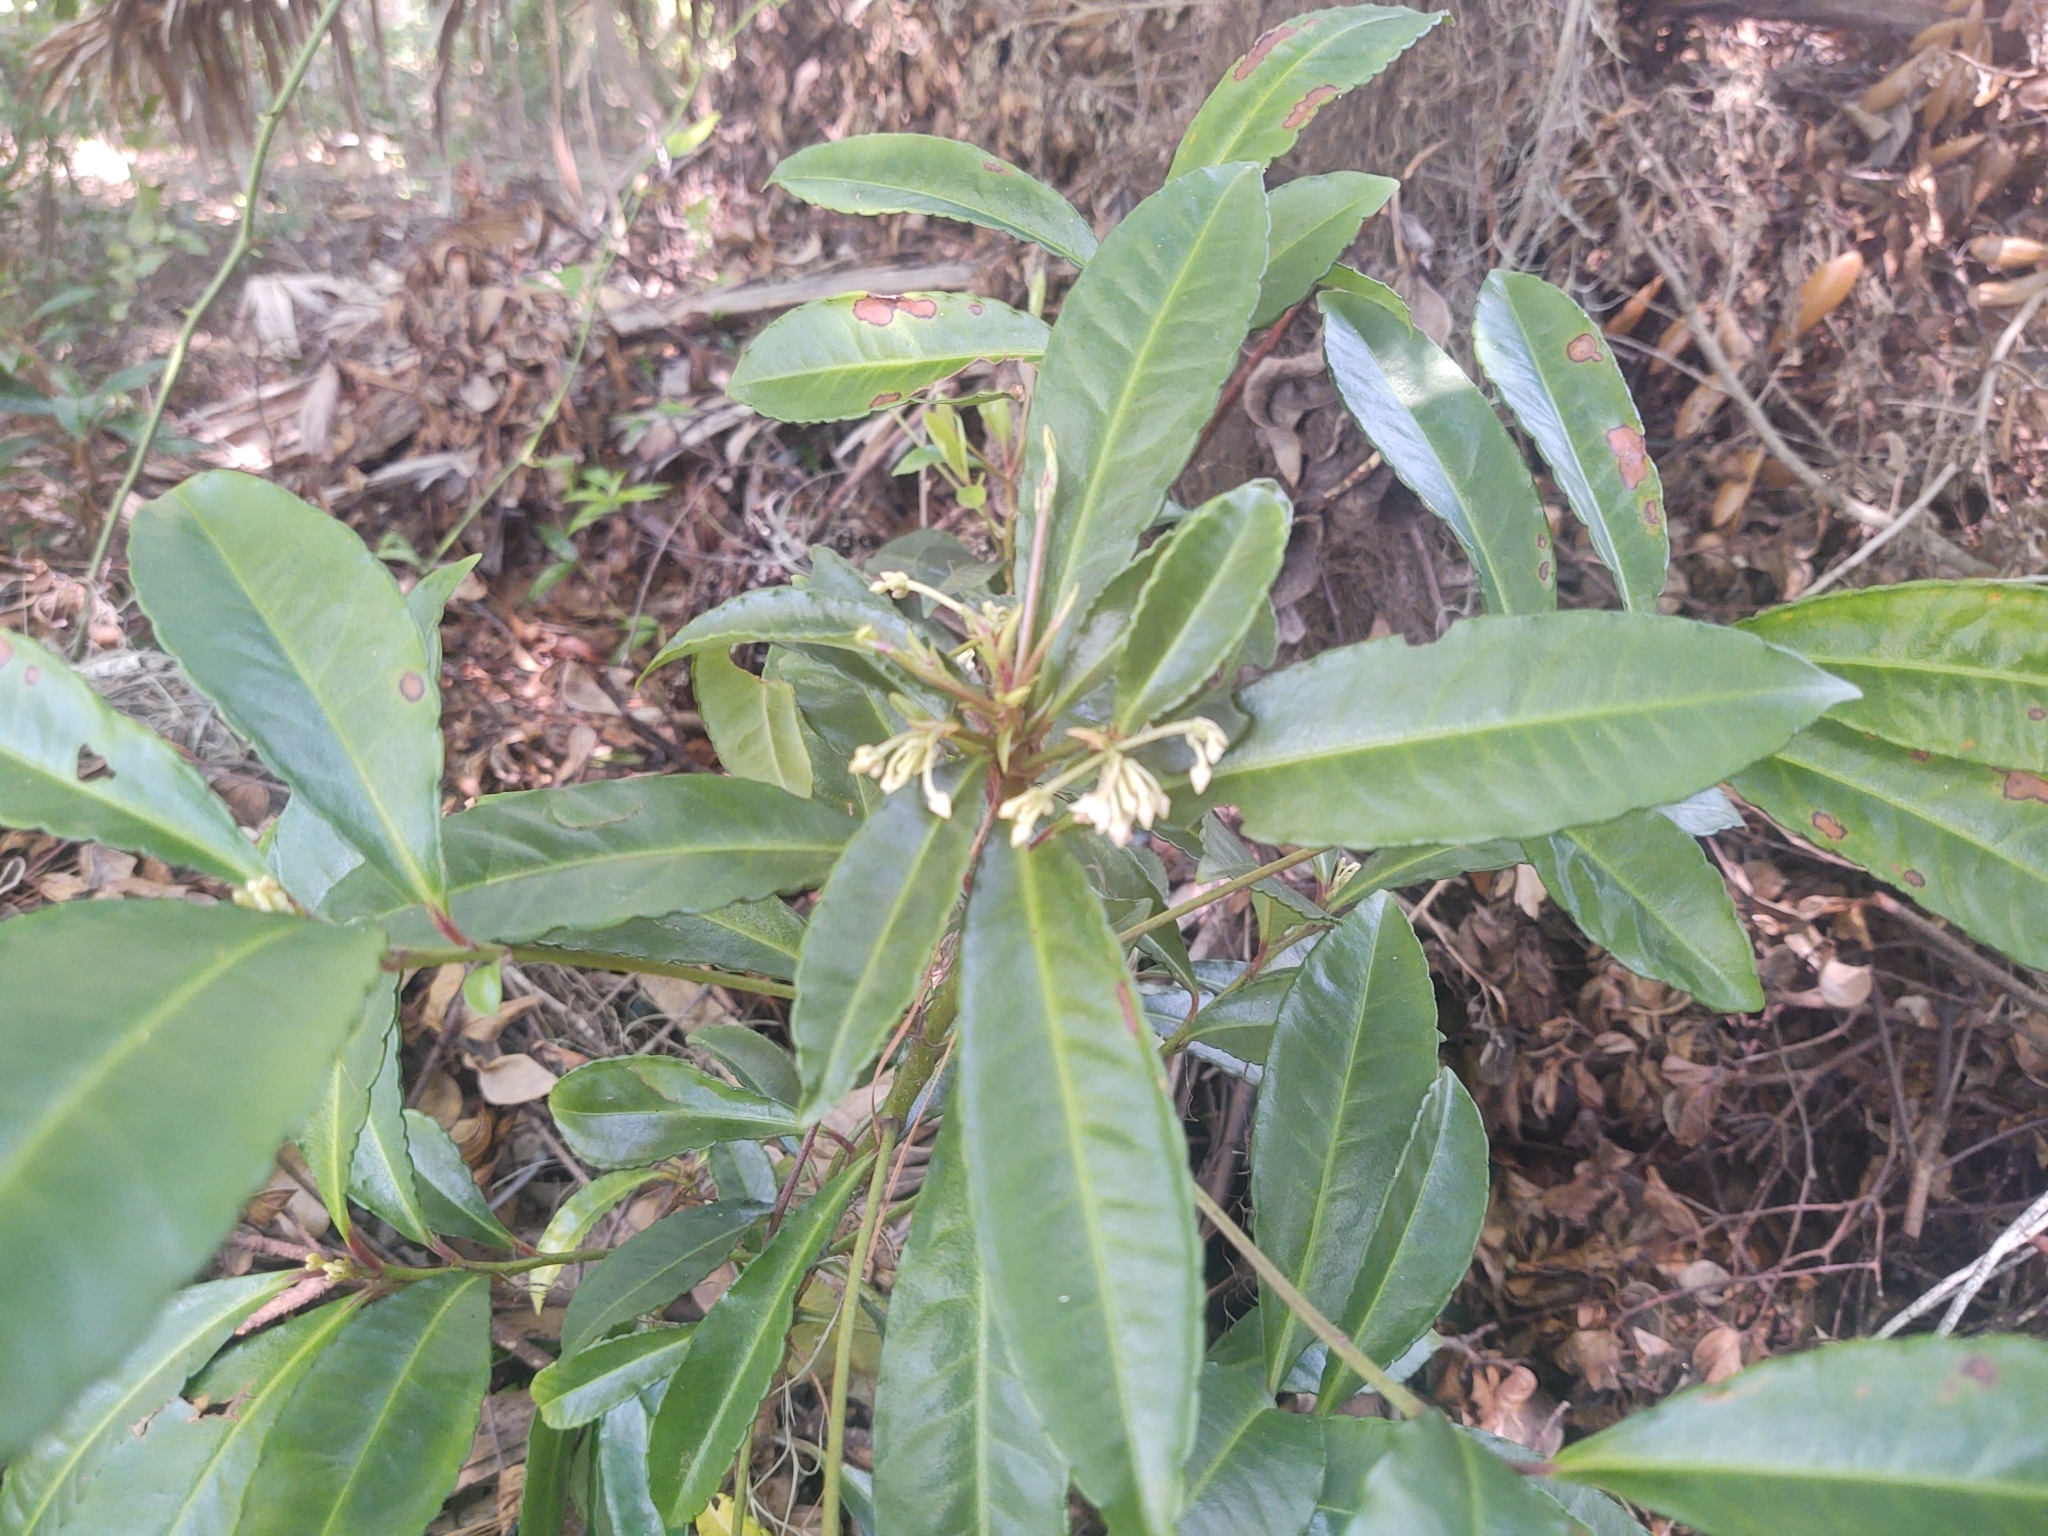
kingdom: Plantae
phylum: Tracheophyta
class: Magnoliopsida
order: Ericales
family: Primulaceae
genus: Ardisia
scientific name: Ardisia crenata
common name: Hen's eyes
